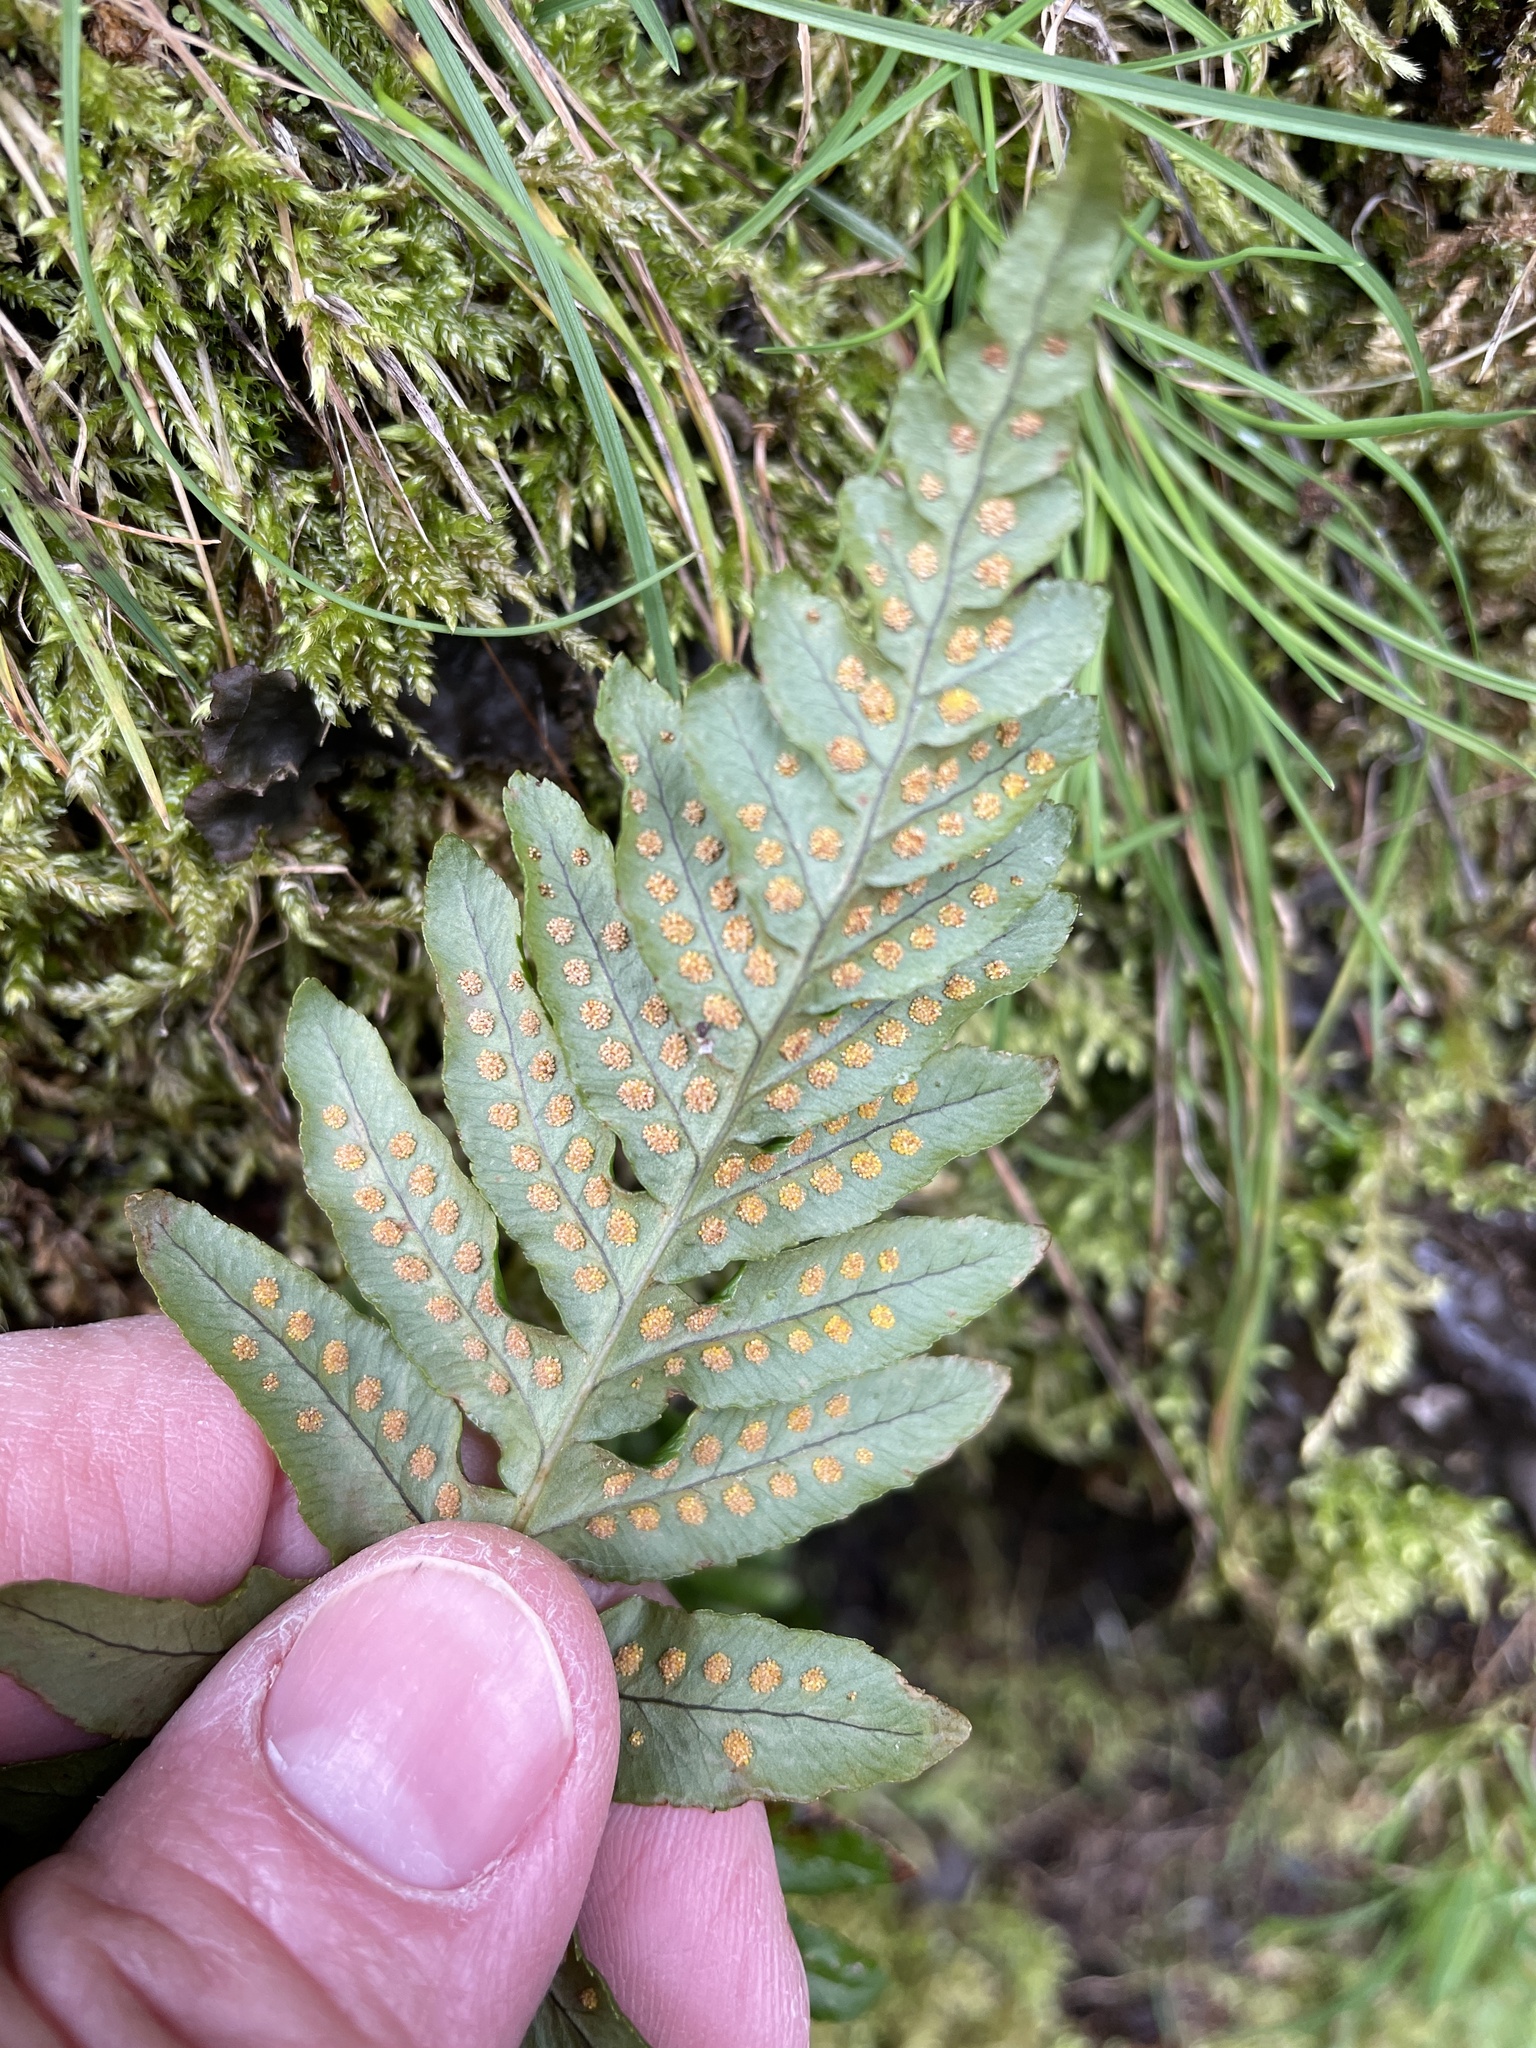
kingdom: Plantae
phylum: Tracheophyta
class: Polypodiopsida
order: Polypodiales
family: Polypodiaceae
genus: Polypodium
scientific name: Polypodium glycyrrhiza
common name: Licorice fern
